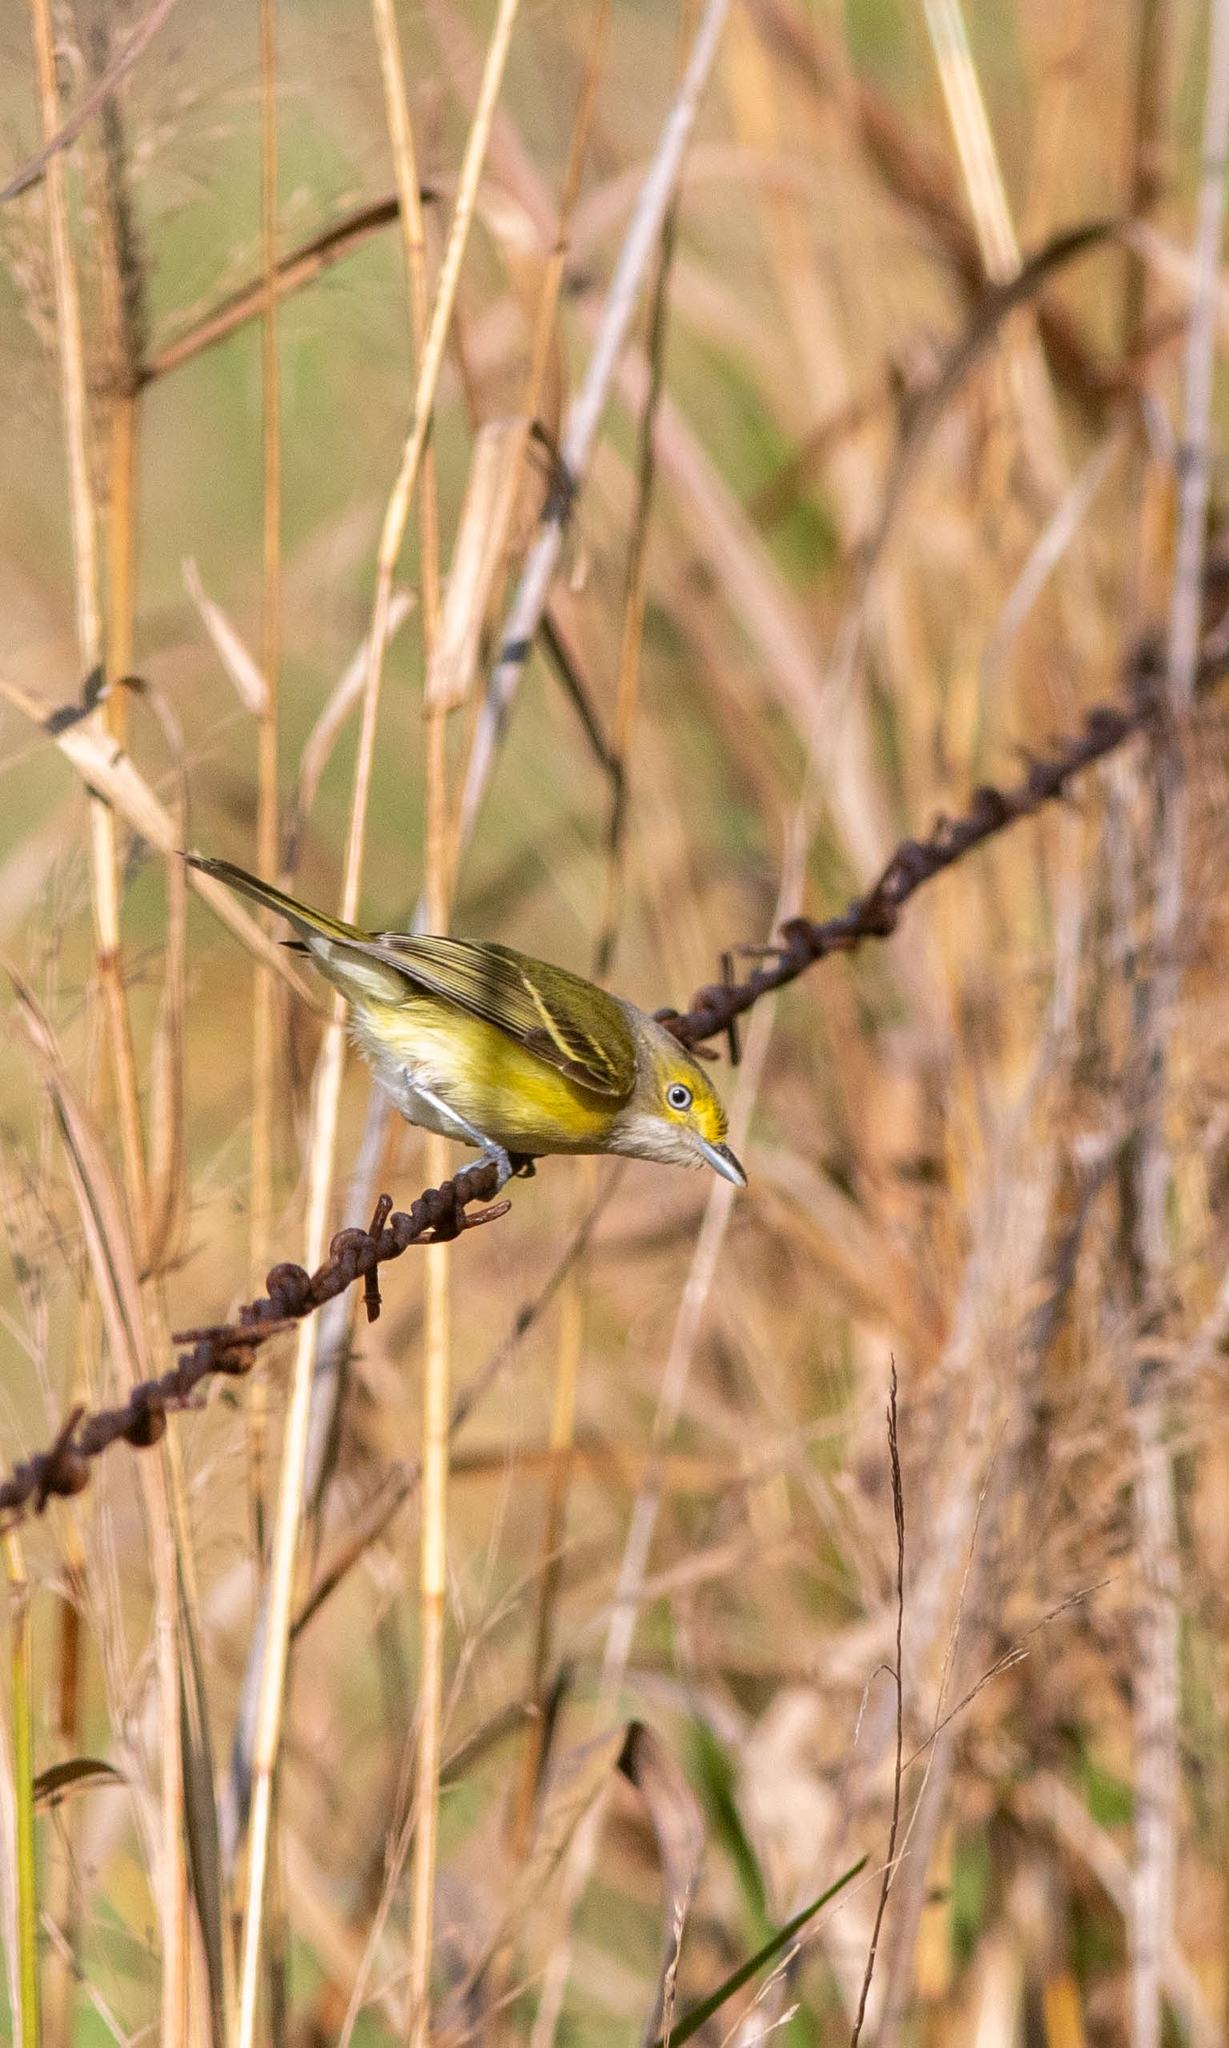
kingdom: Animalia
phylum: Chordata
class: Aves
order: Passeriformes
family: Vireonidae
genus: Vireo
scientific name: Vireo griseus
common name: White-eyed vireo
